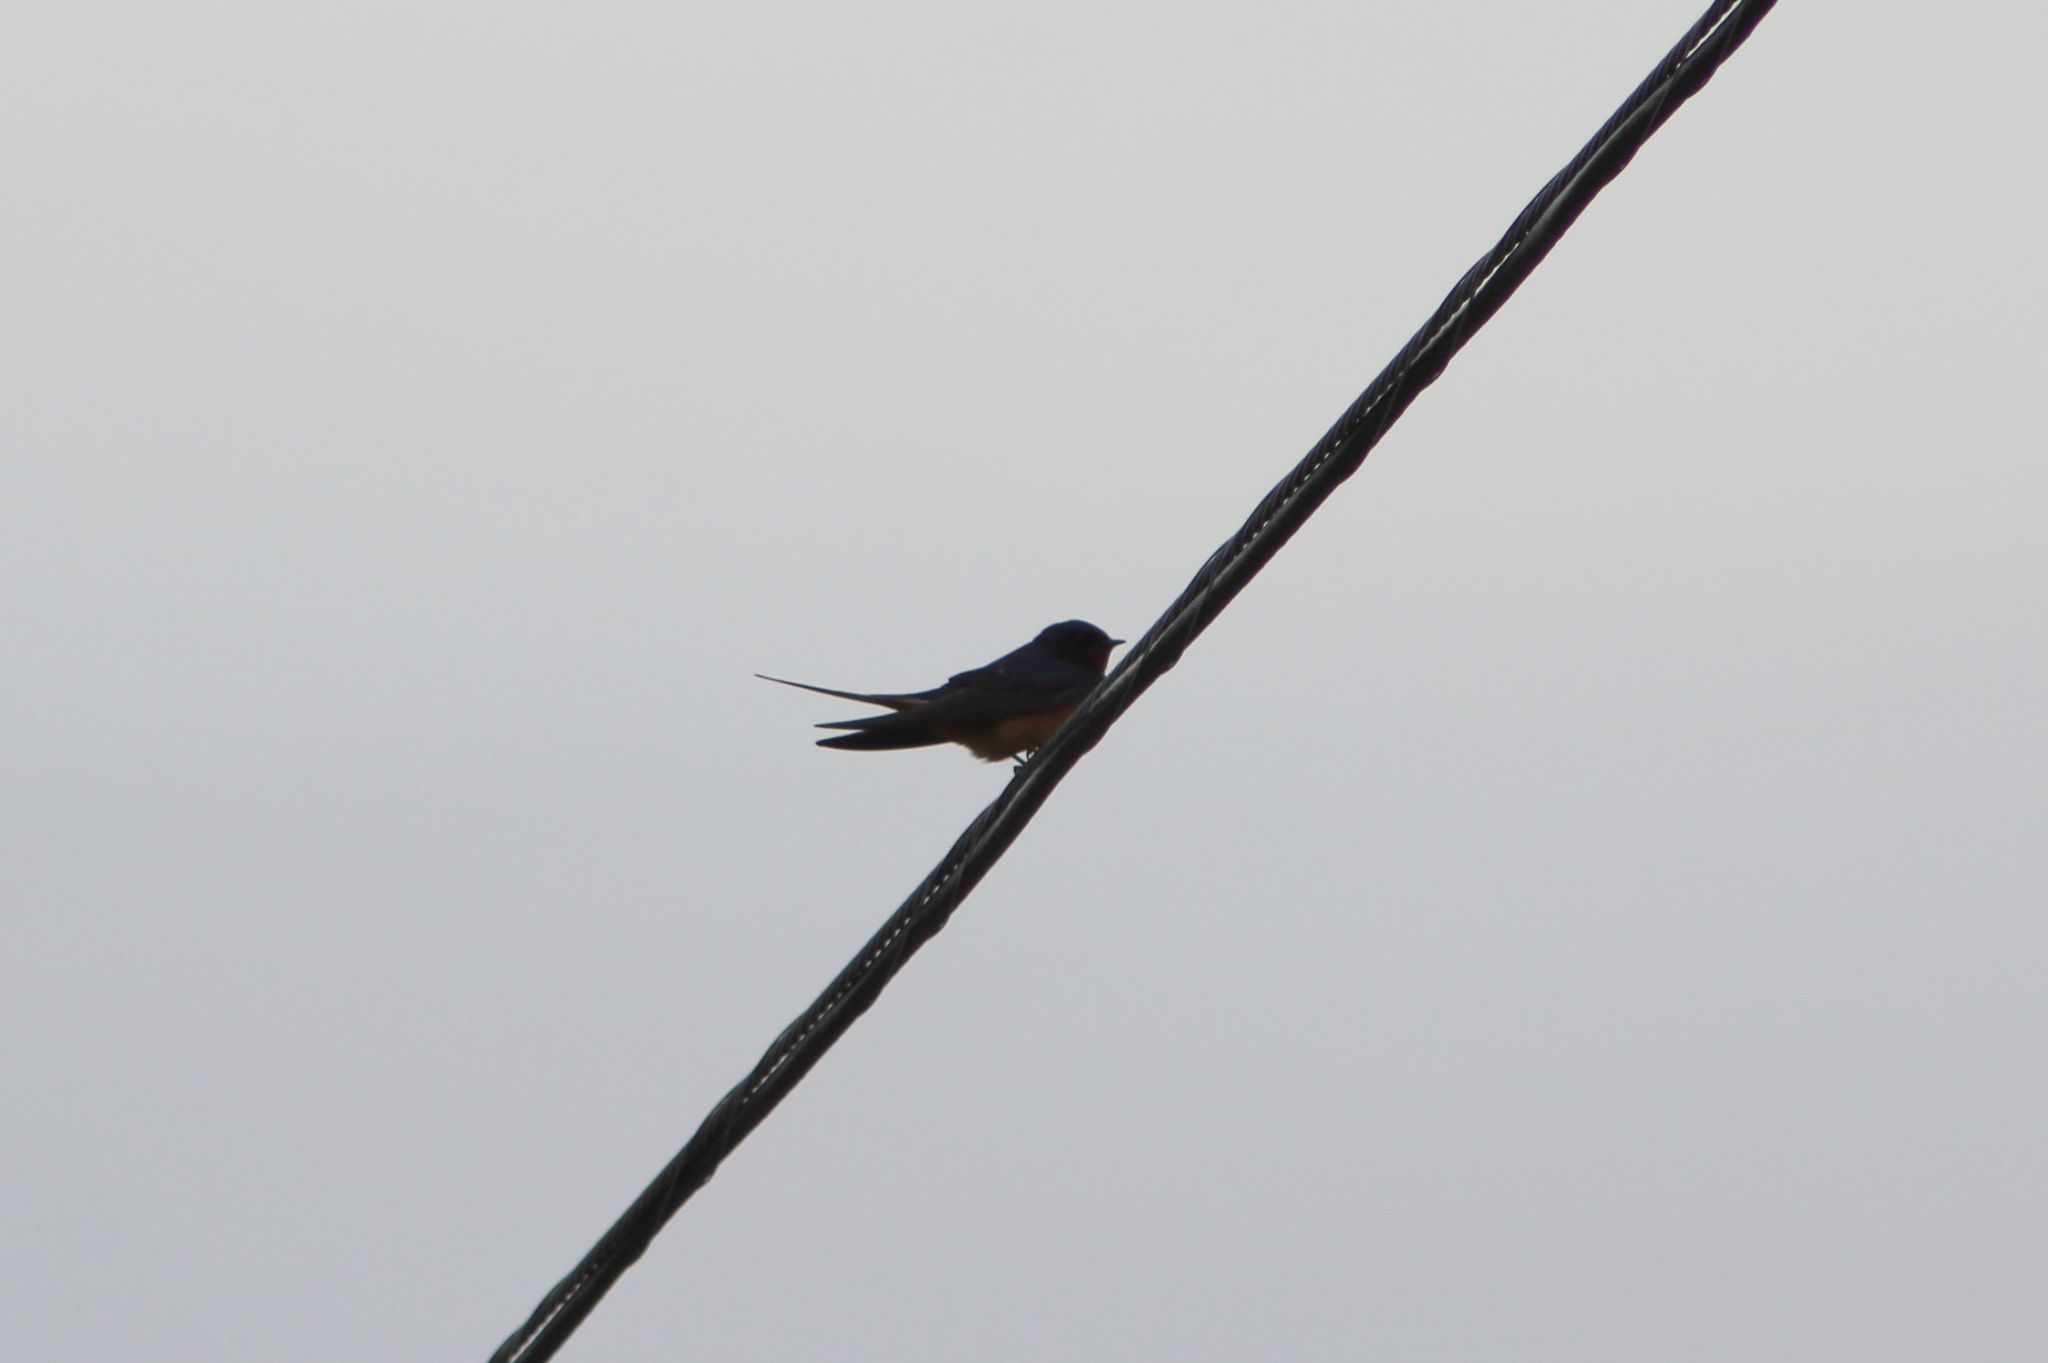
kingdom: Animalia
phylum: Chordata
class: Aves
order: Passeriformes
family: Hirundinidae
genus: Hirundo
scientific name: Hirundo rustica
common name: Barn swallow
